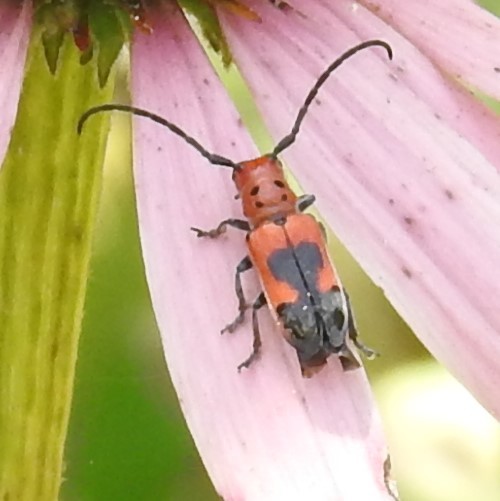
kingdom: Animalia
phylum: Arthropoda
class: Insecta
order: Coleoptera
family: Cerambycidae
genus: Tetraopes
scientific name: Tetraopes melanurus
